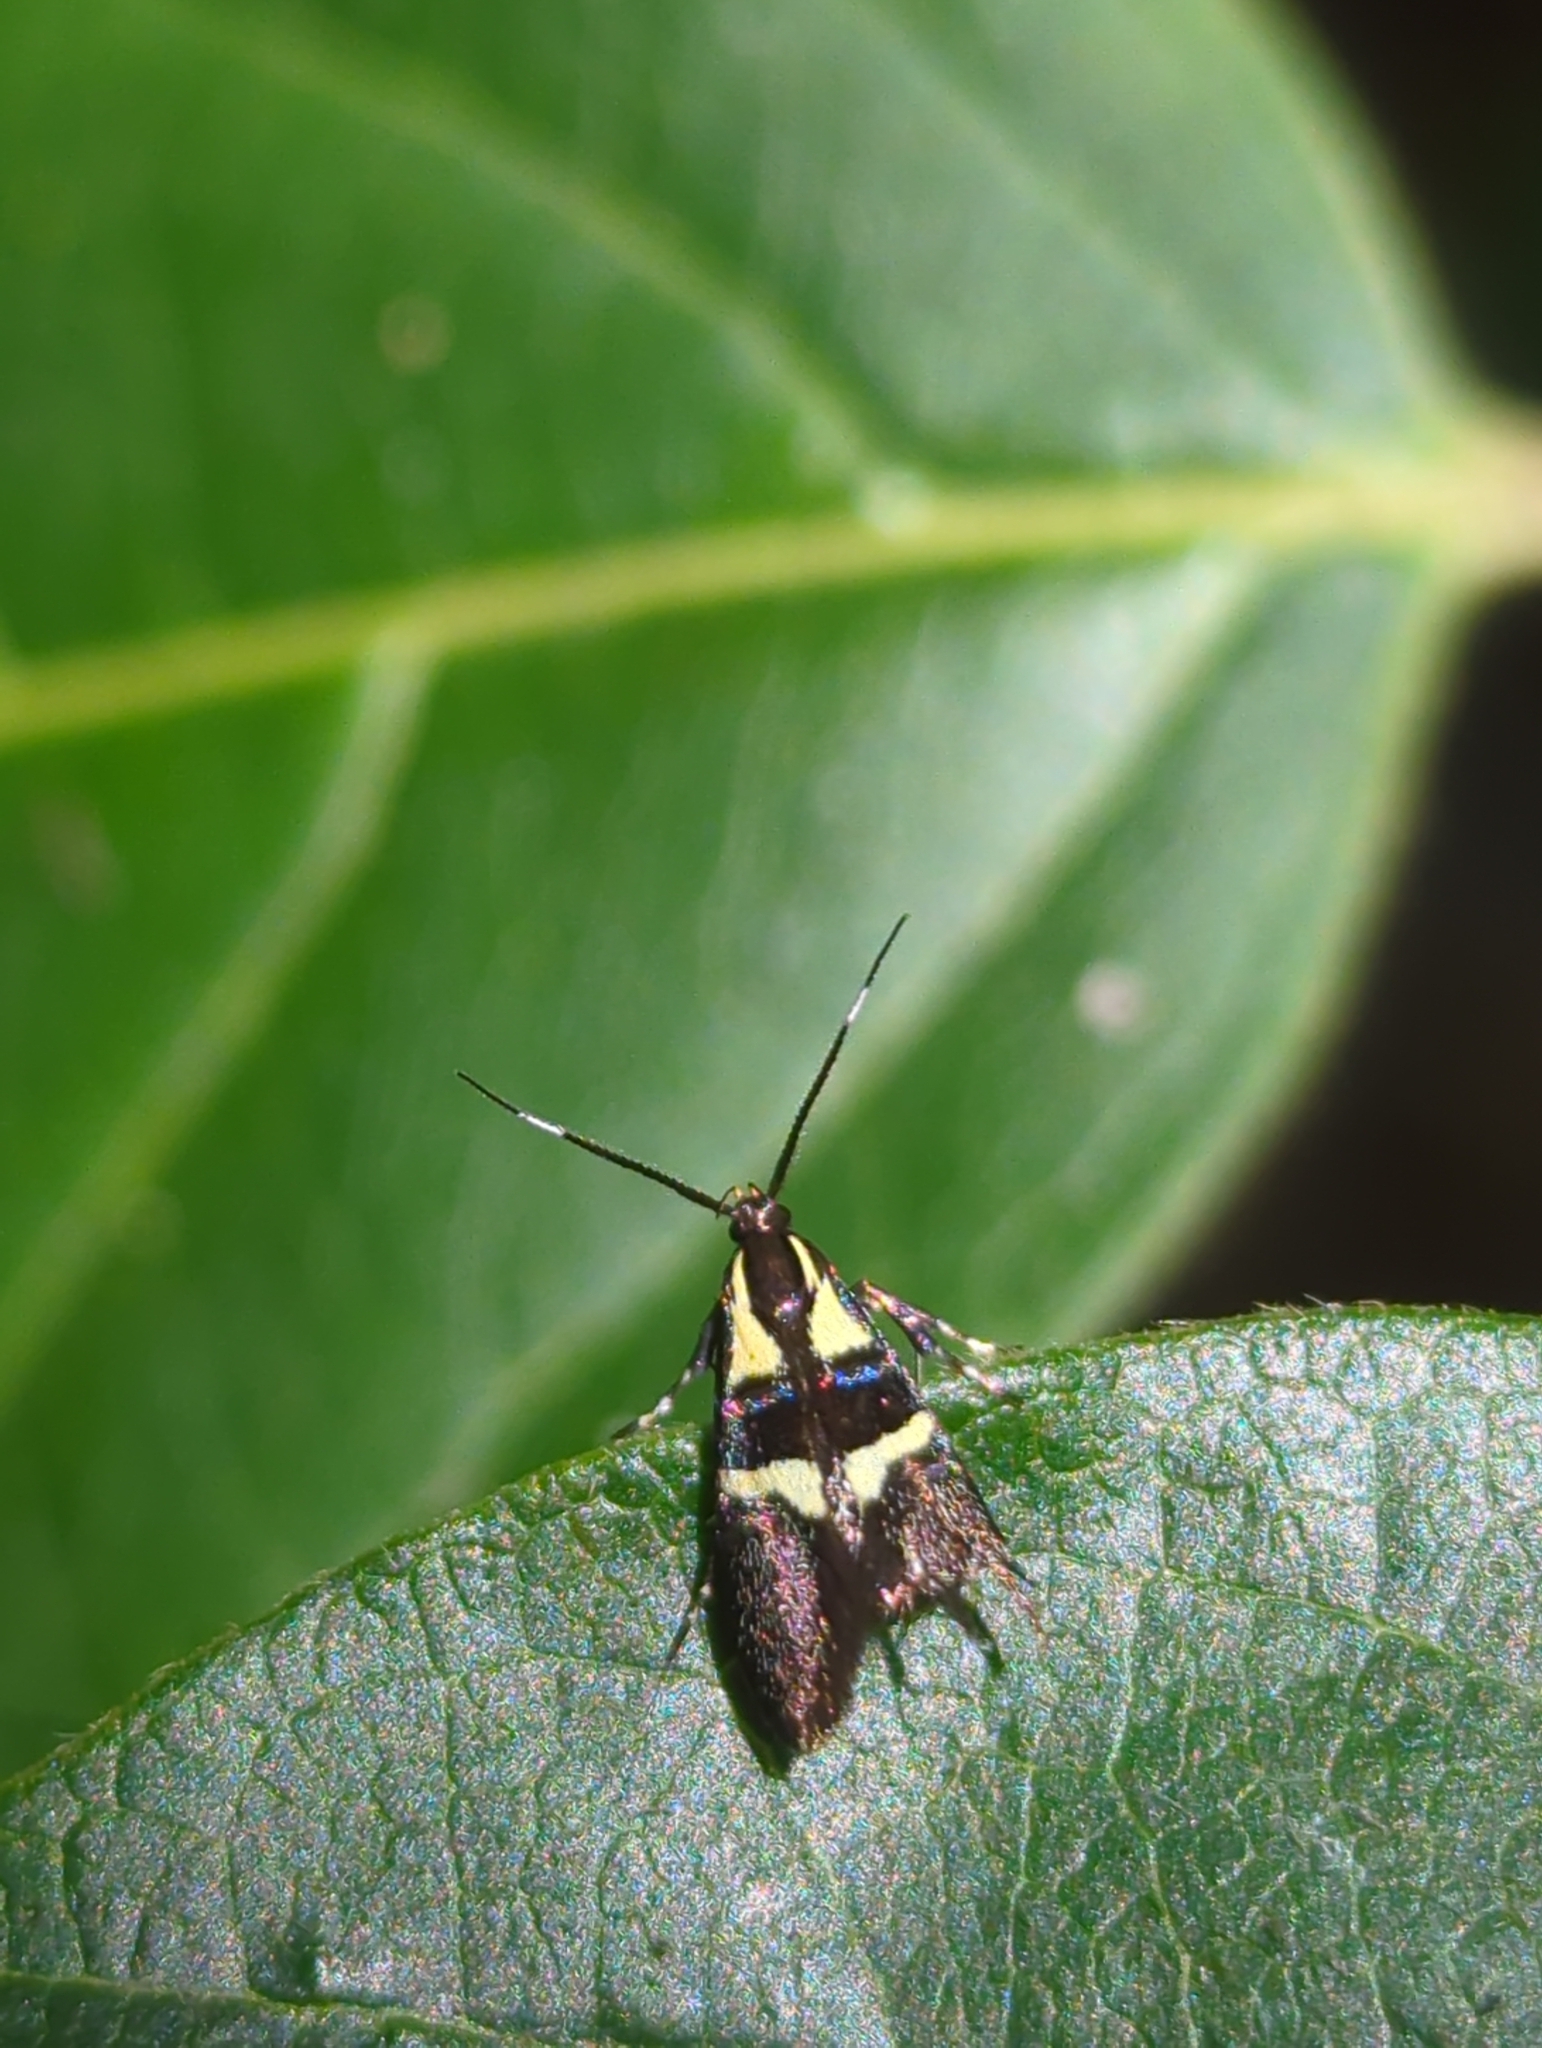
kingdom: Animalia
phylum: Arthropoda
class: Insecta
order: Lepidoptera
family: Oecophoridae
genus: Dafa
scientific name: Dafa oliviella
